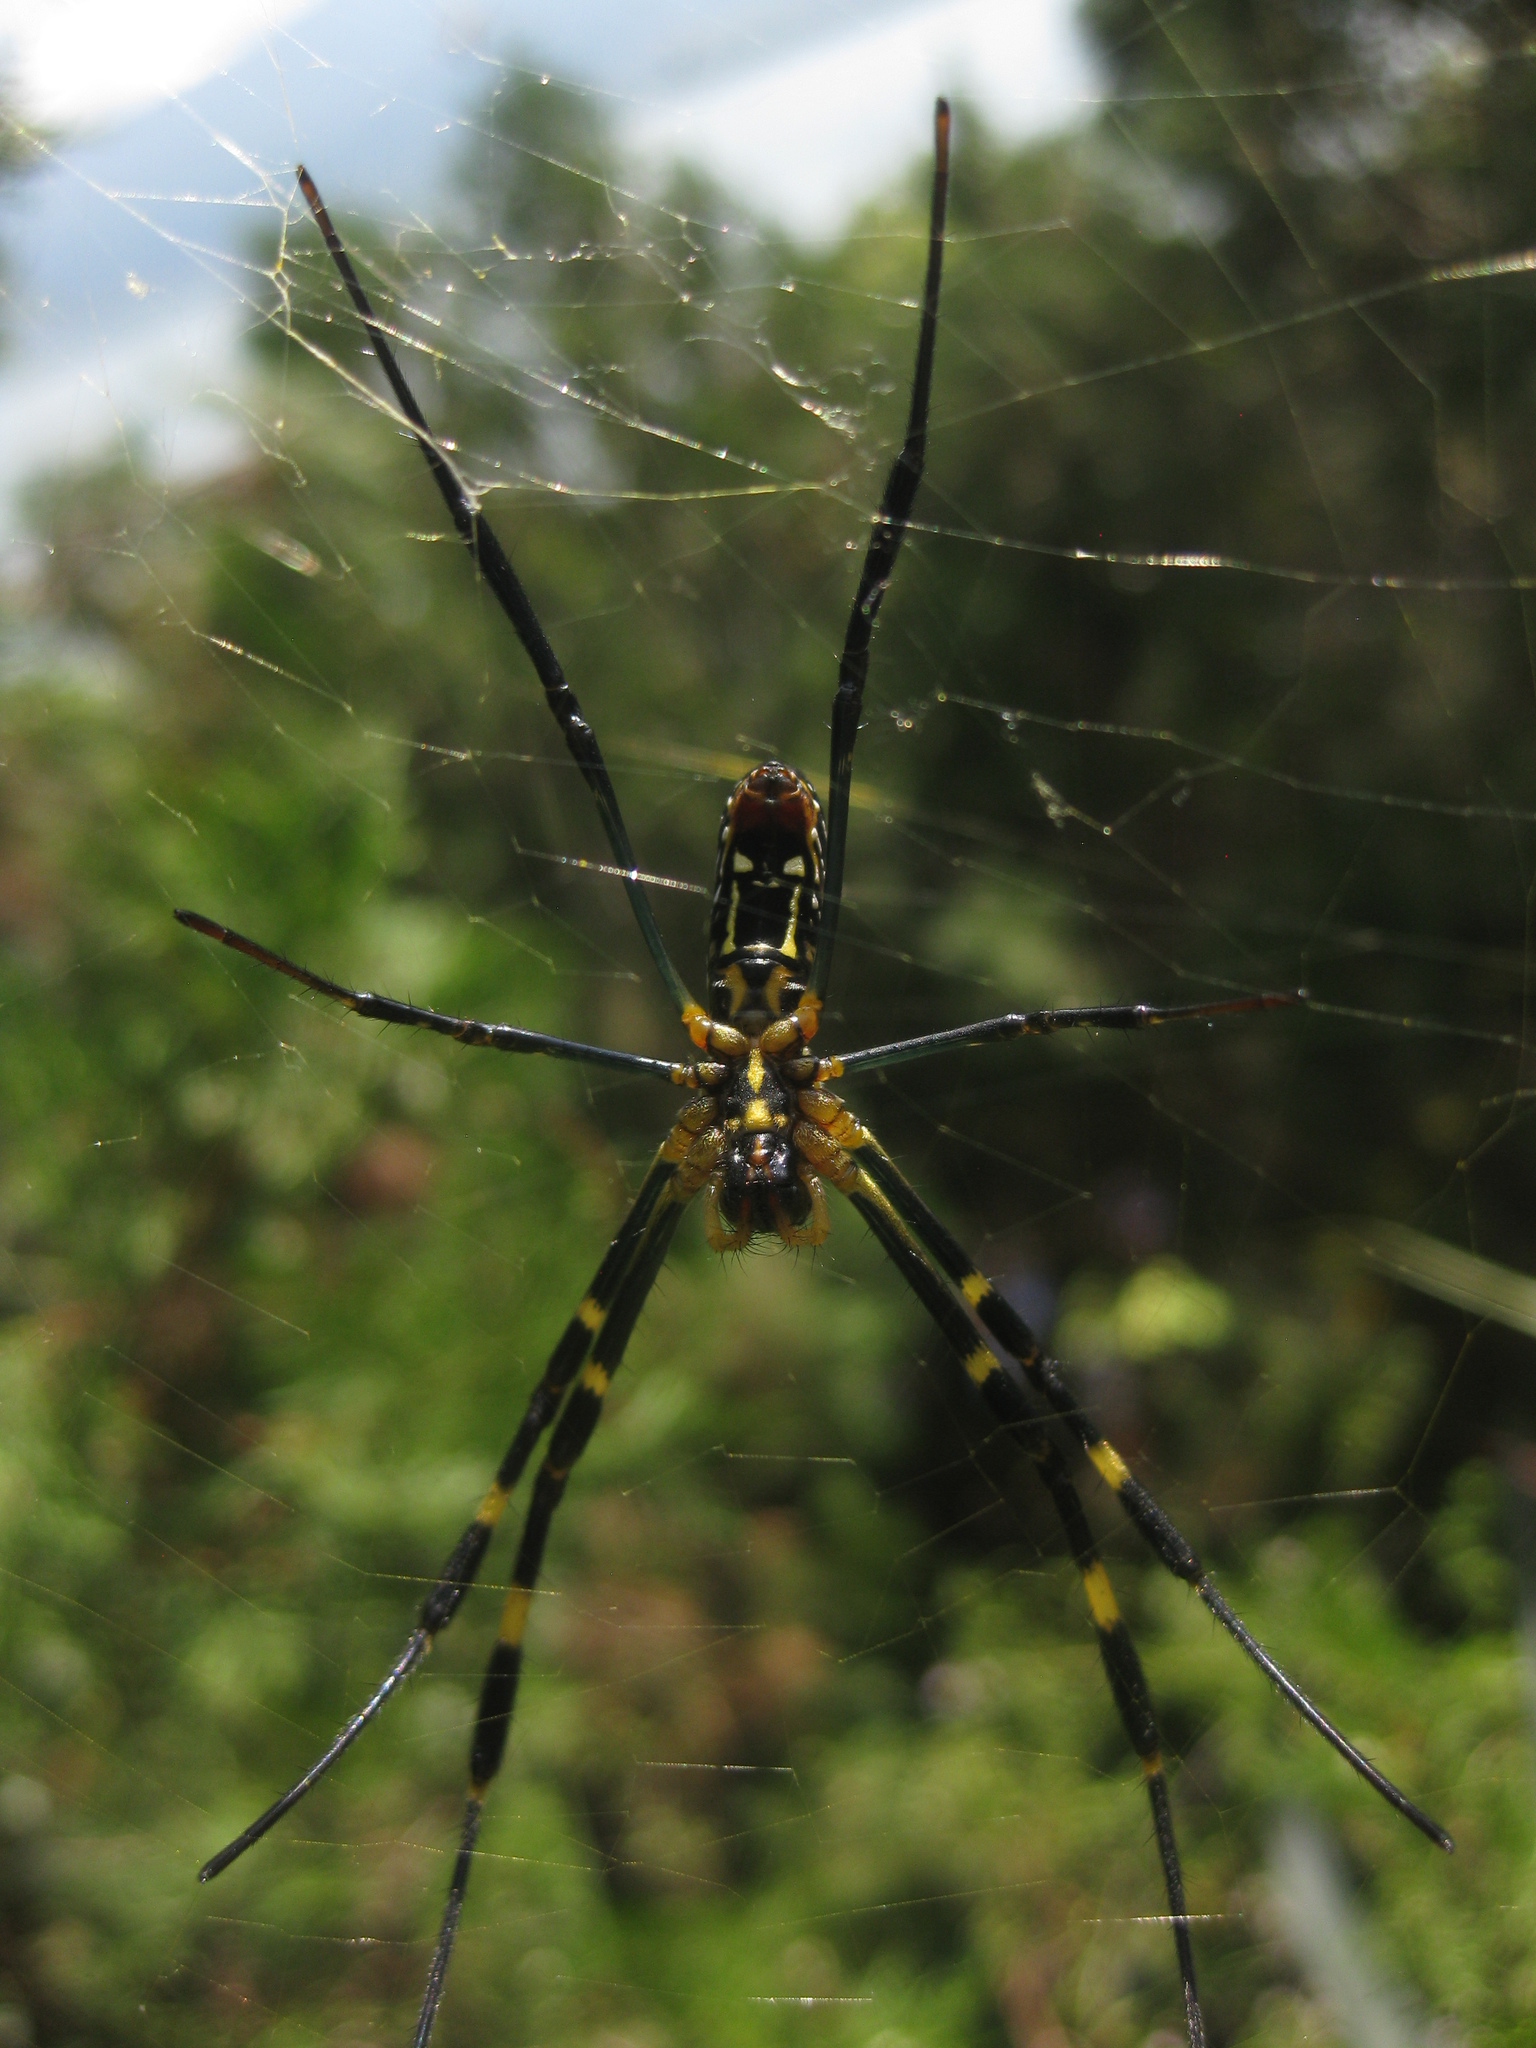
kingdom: Animalia
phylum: Arthropoda
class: Arachnida
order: Araneae
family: Araneidae
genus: Trichonephila
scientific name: Trichonephila clavata
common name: Jorō spider
